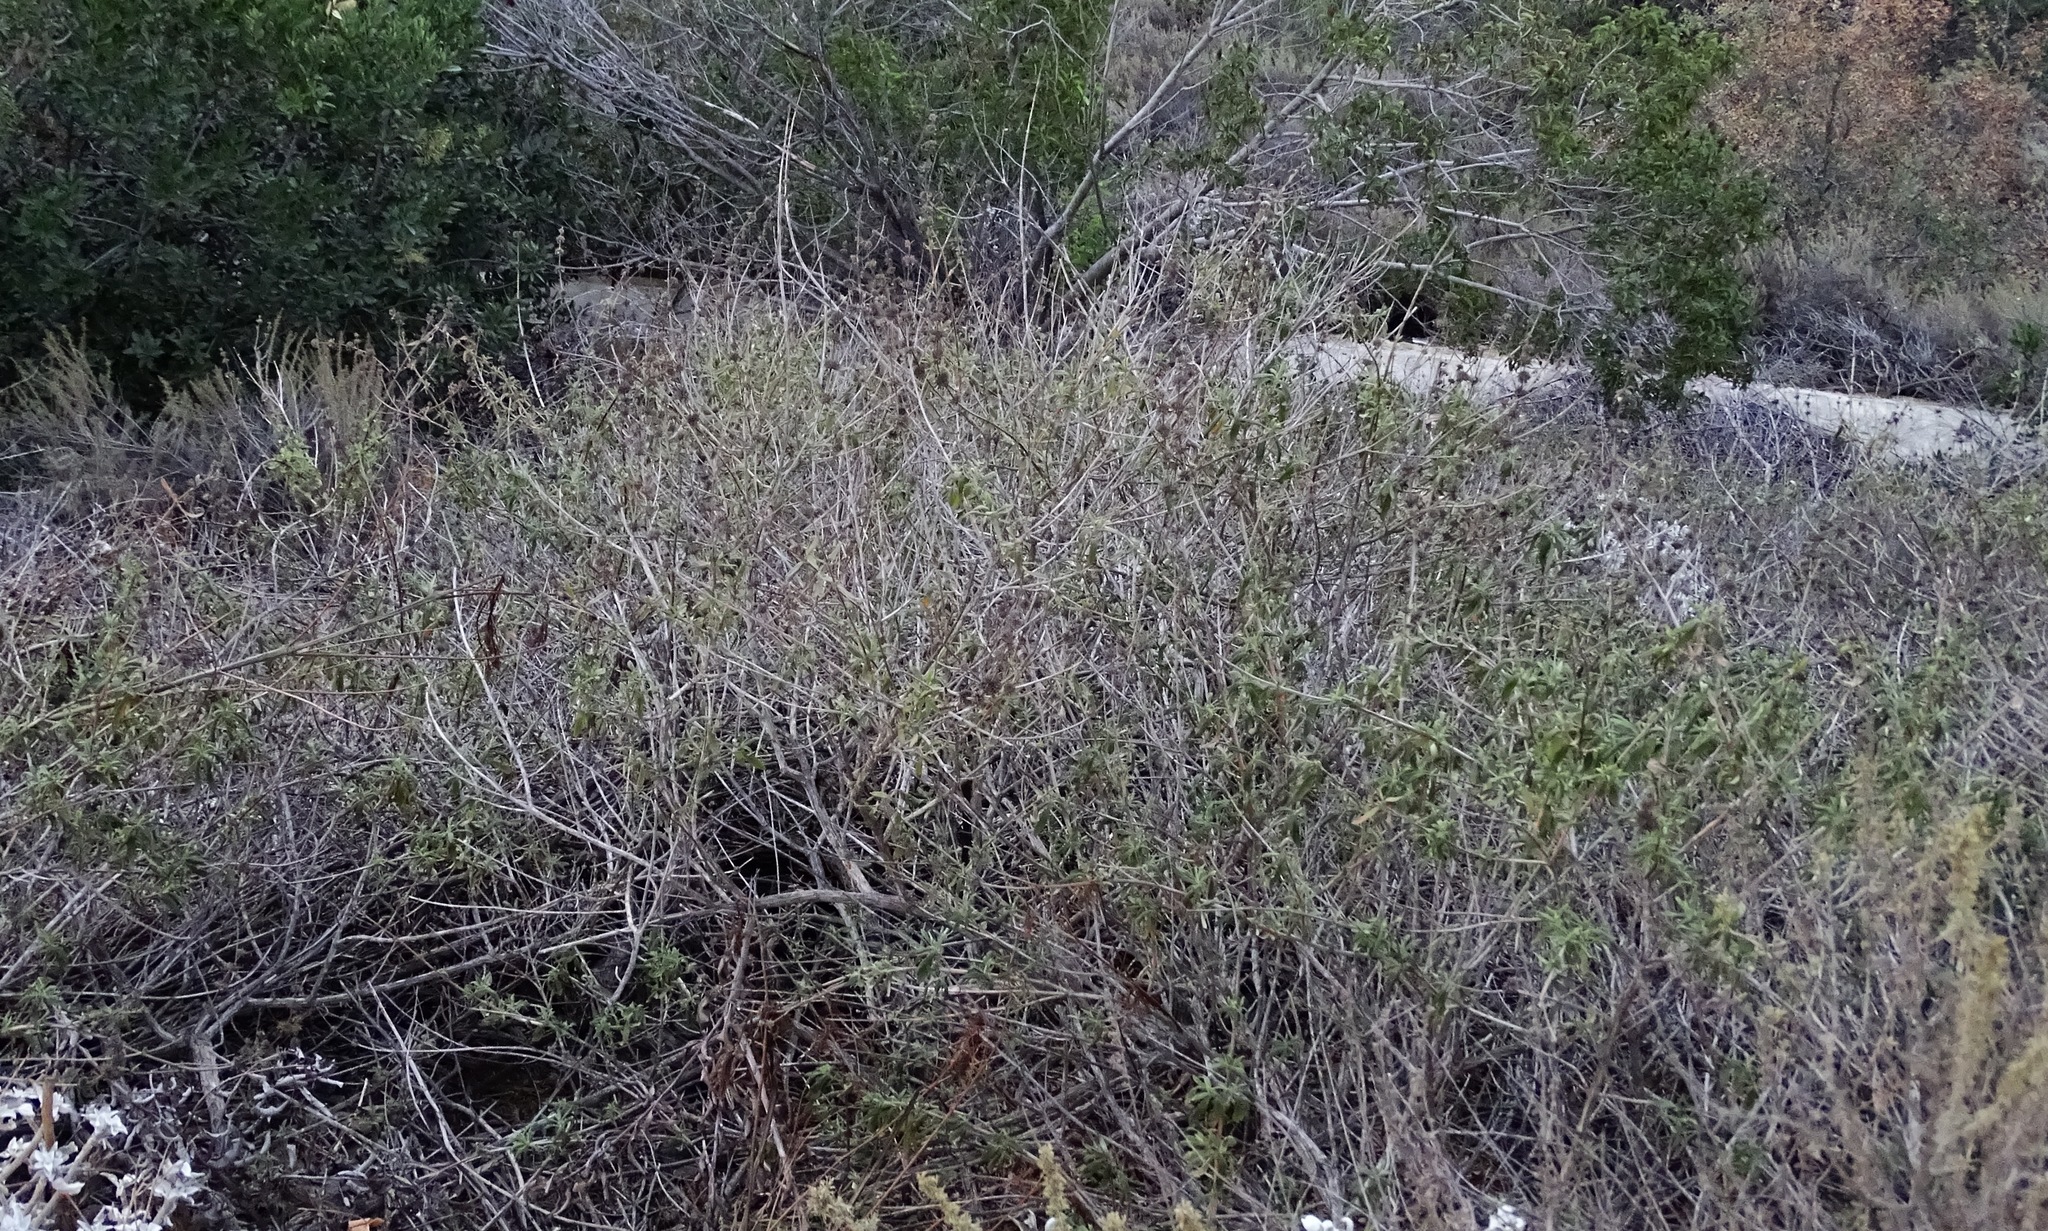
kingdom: Plantae
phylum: Tracheophyta
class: Magnoliopsida
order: Lamiales
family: Lamiaceae
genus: Salvia
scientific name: Salvia mellifera
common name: Black sage
